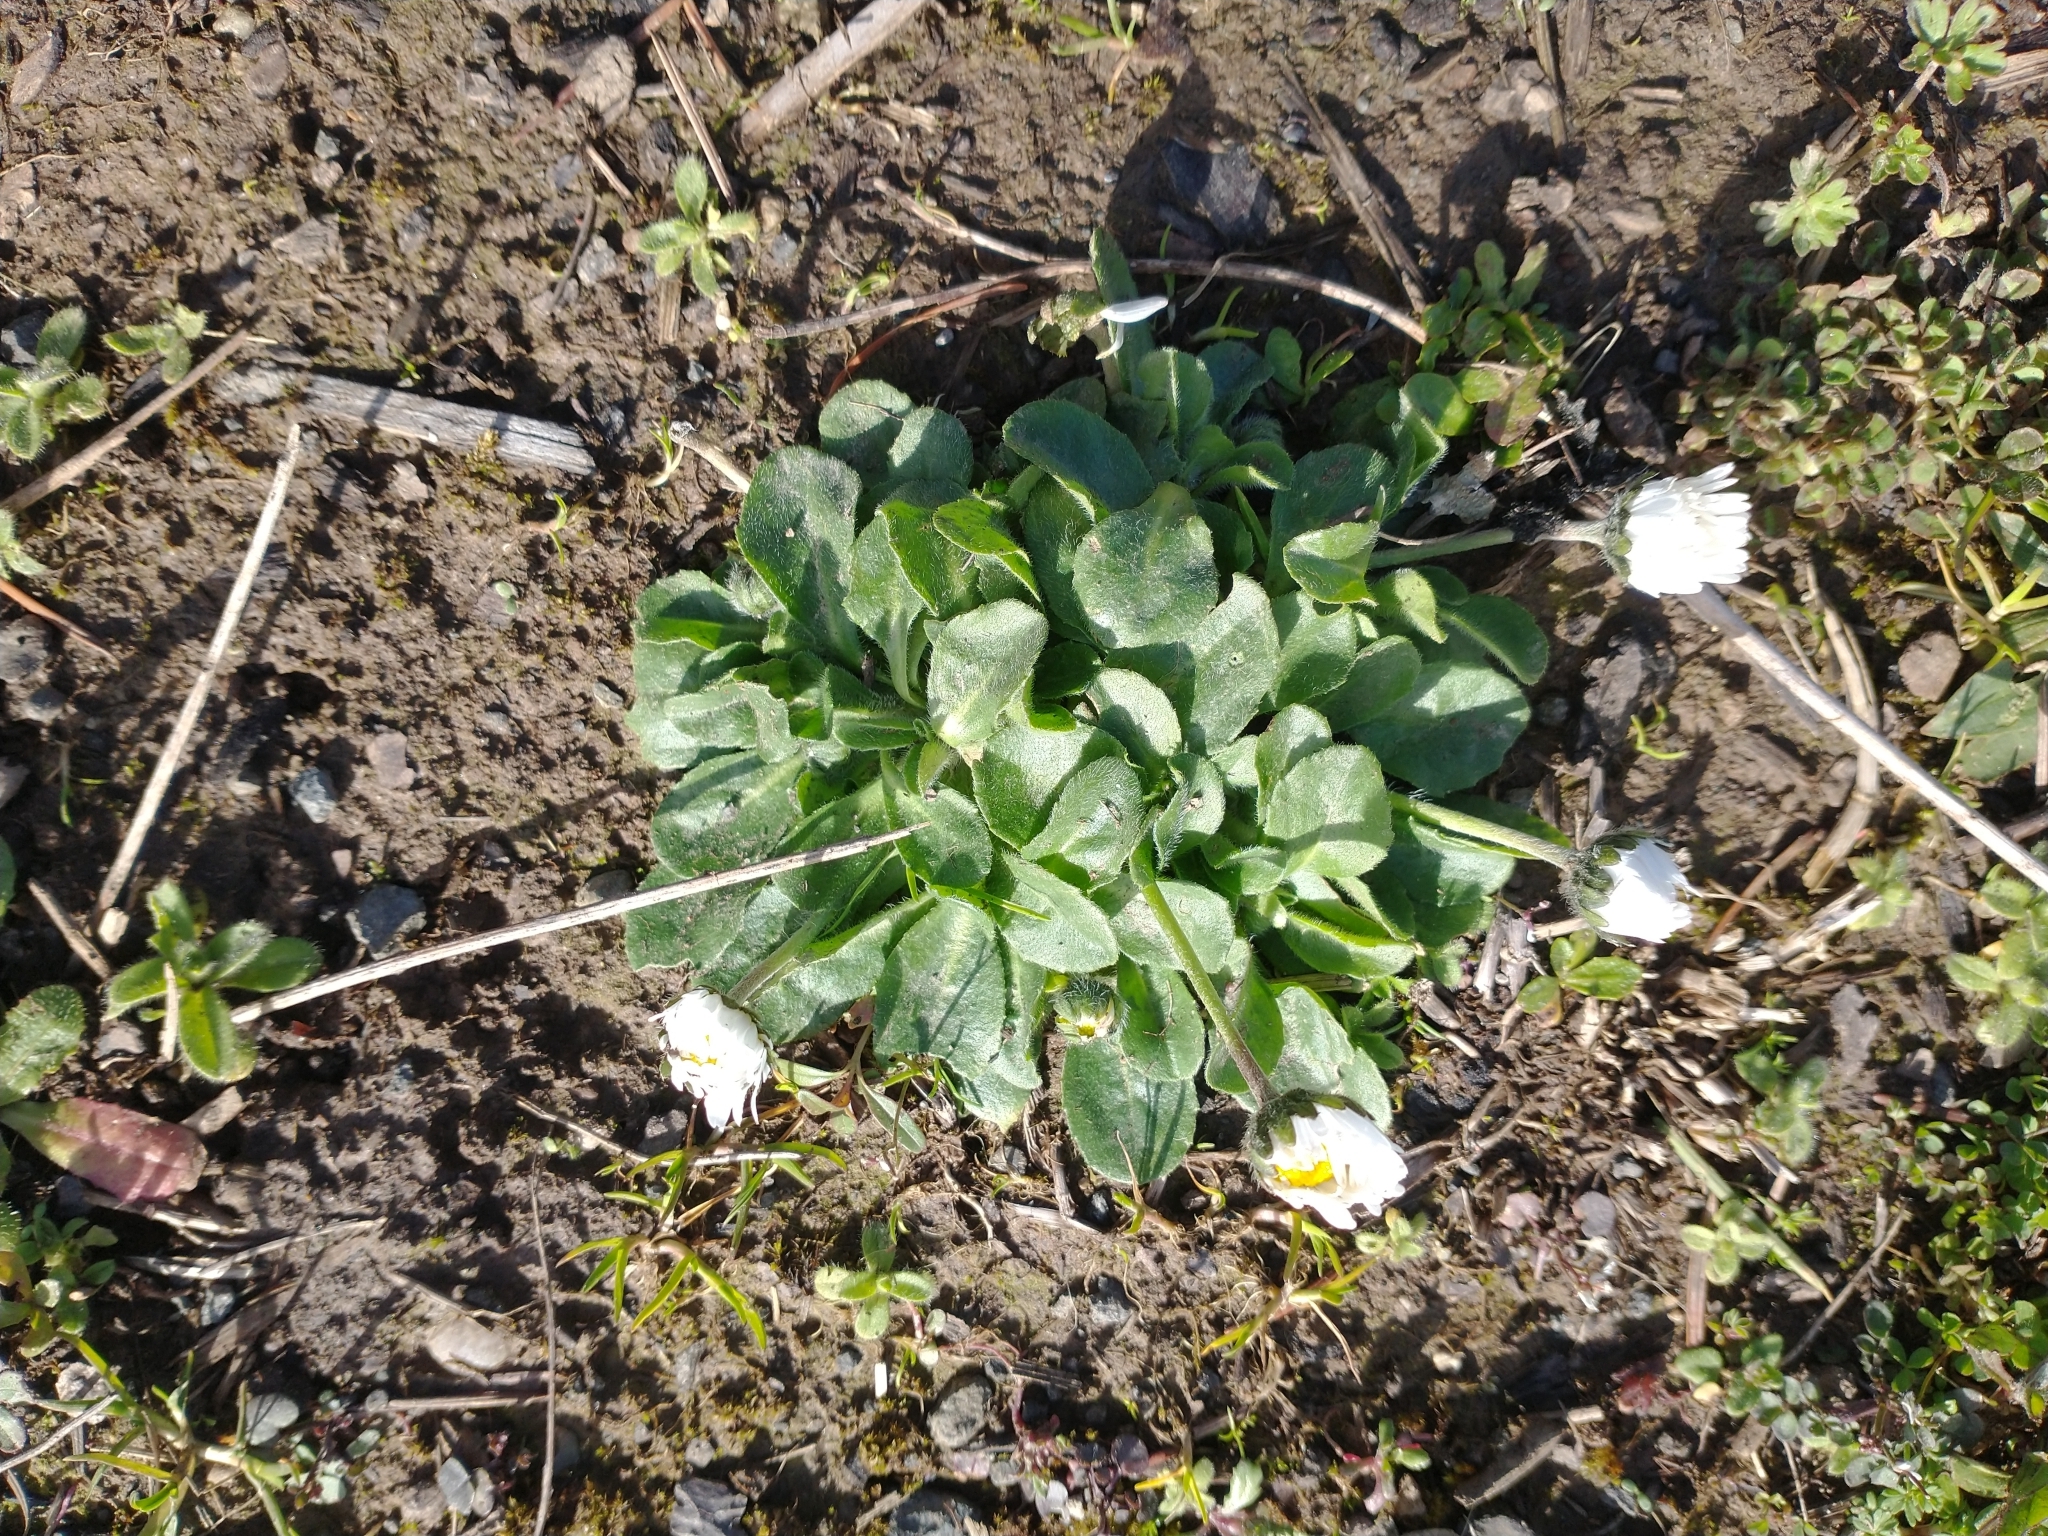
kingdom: Plantae
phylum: Tracheophyta
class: Magnoliopsida
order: Asterales
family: Asteraceae
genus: Bellis
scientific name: Bellis perennis
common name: Lawndaisy
